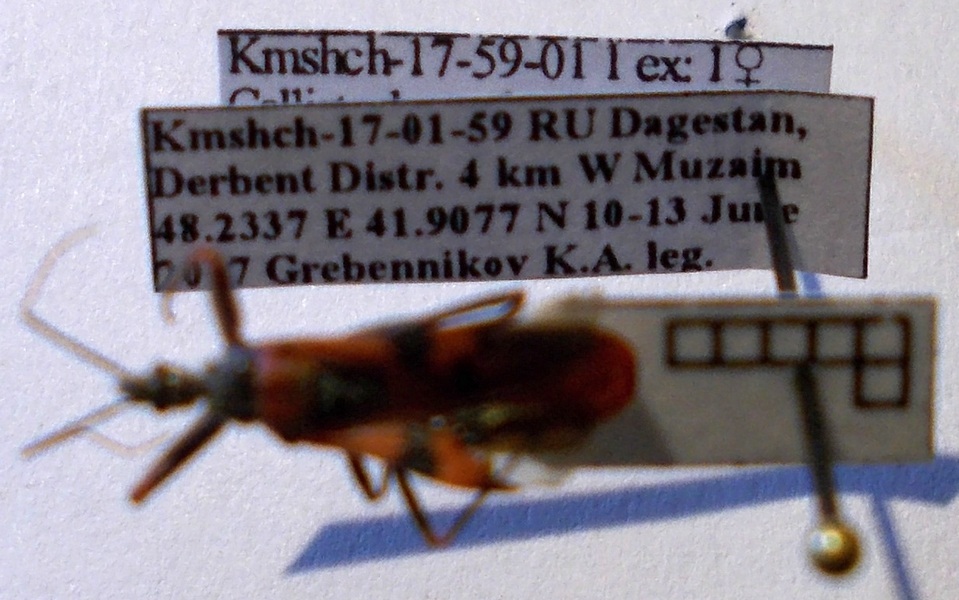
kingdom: Animalia
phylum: Arthropoda
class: Insecta
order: Hemiptera
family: Reduviidae
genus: Callistodema
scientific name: Callistodema fasciata
